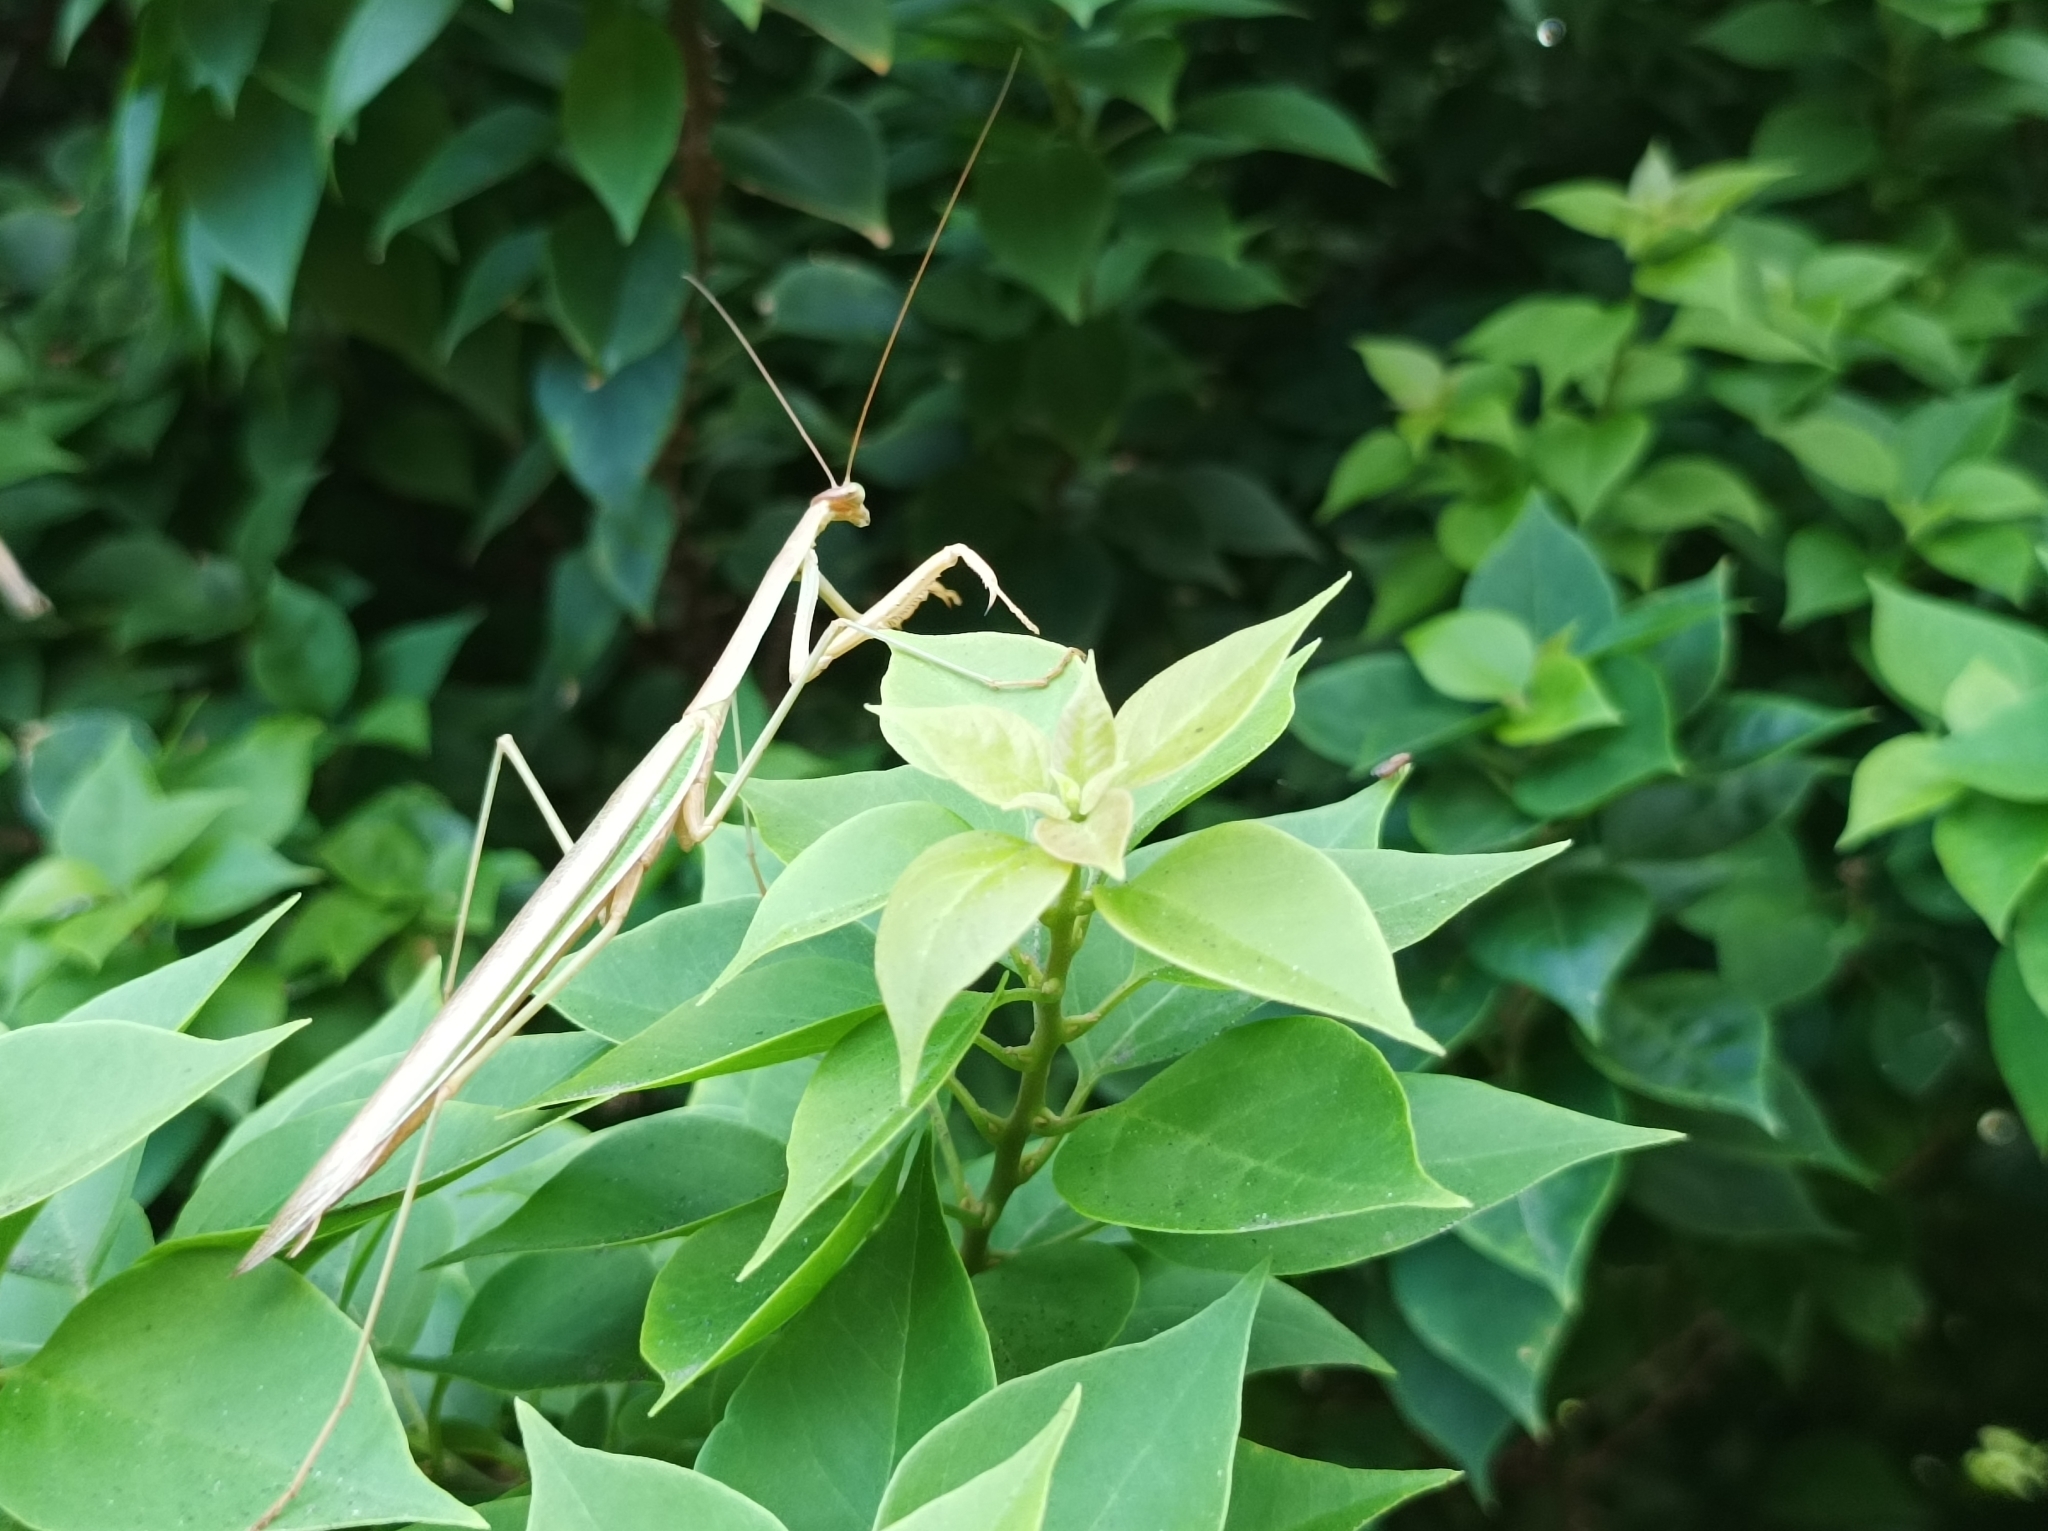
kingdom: Animalia
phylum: Arthropoda
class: Insecta
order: Mantodea
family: Mantidae
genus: Tenodera
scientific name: Tenodera australasiae
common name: Purple-winged mantis
